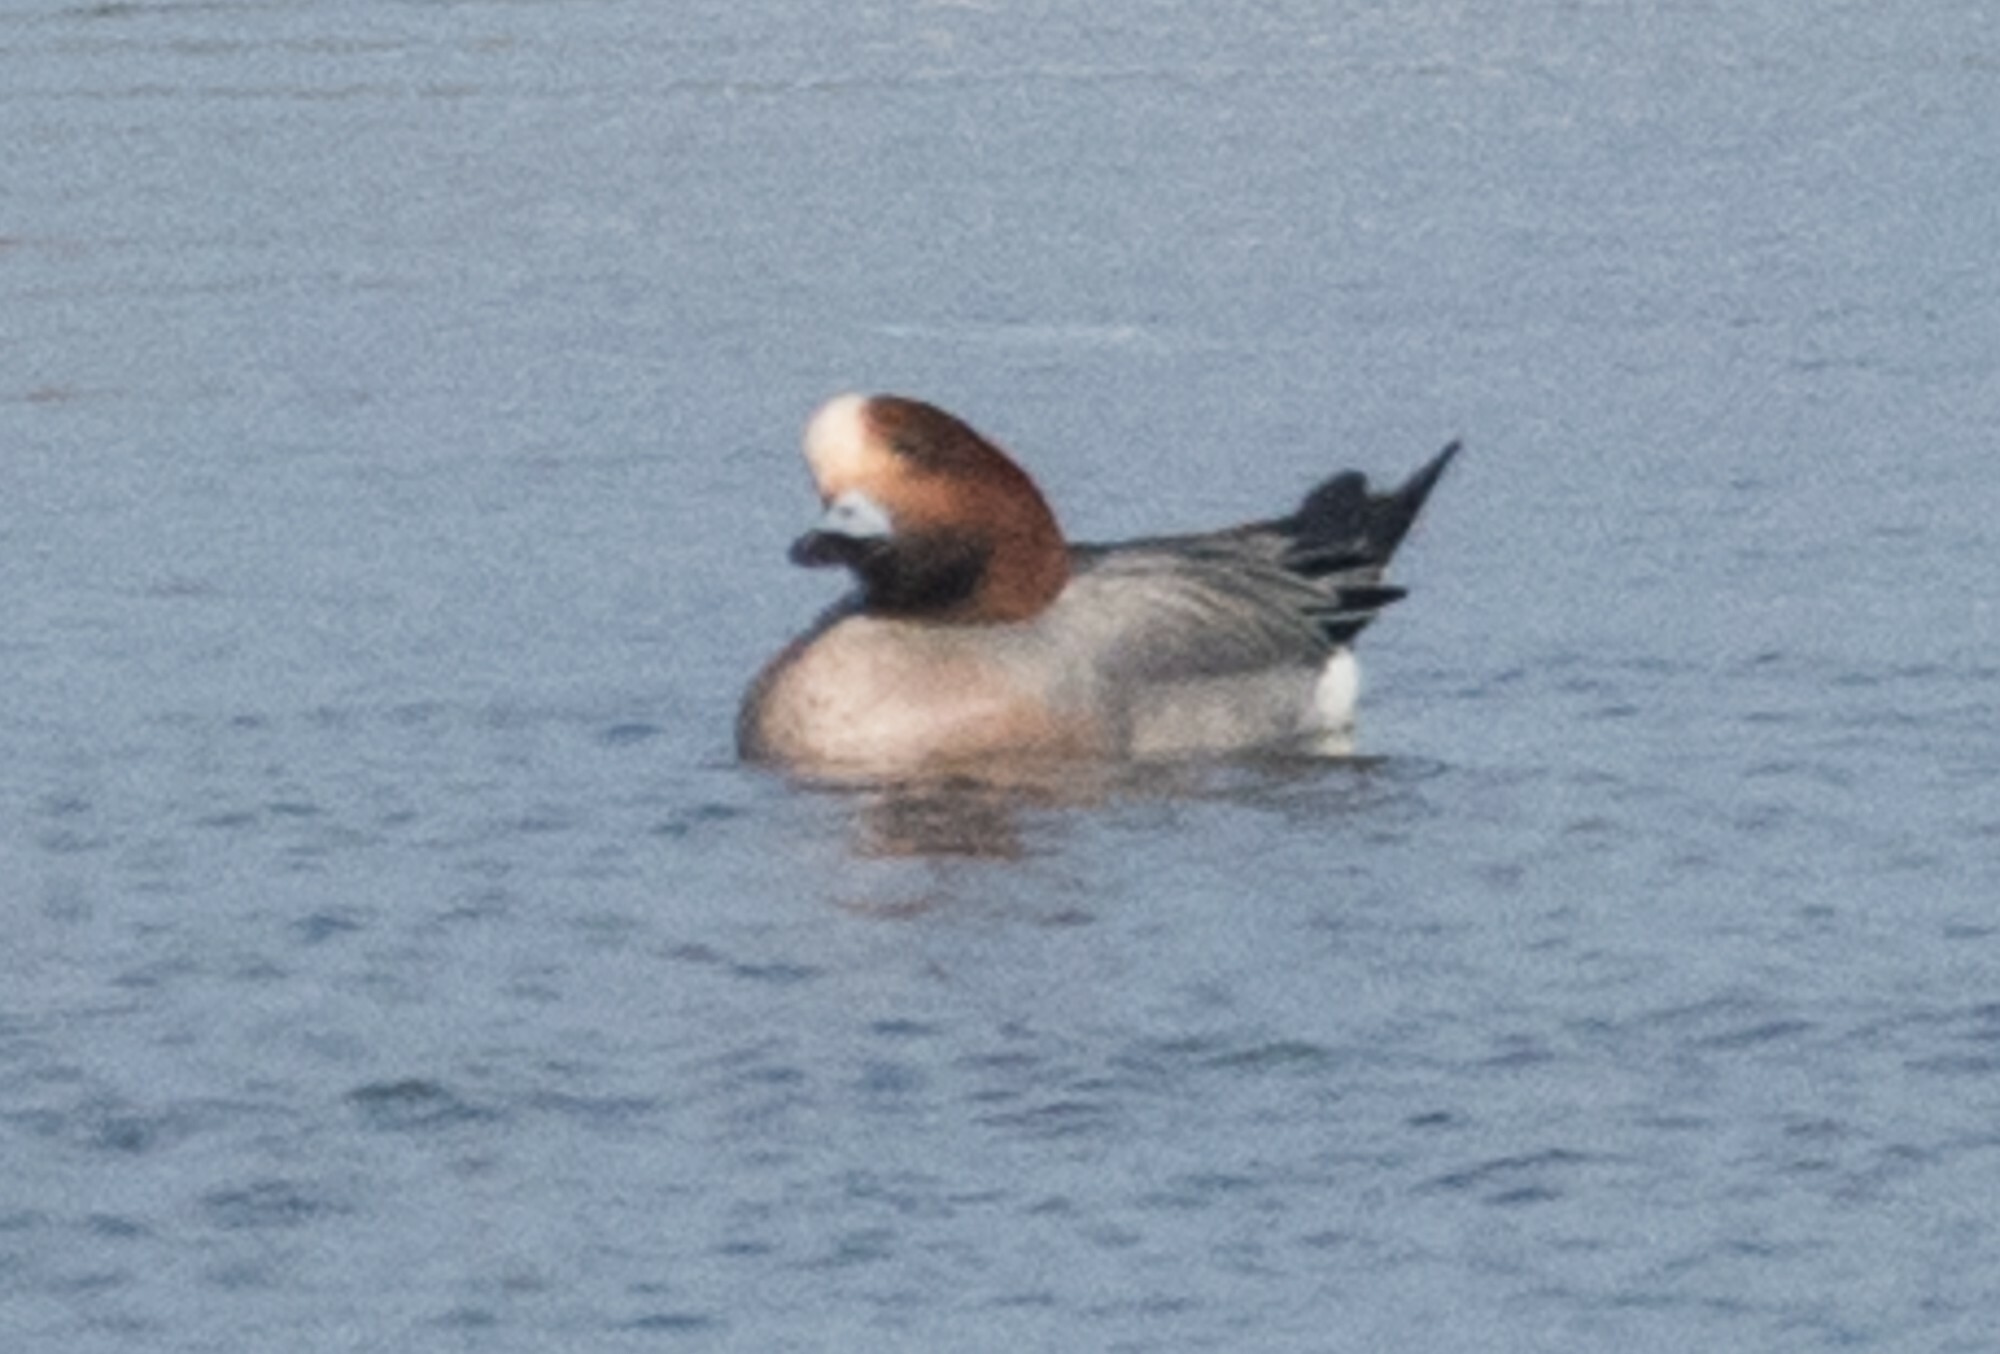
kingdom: Animalia
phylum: Chordata
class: Aves
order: Anseriformes
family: Anatidae
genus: Mareca
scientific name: Mareca penelope
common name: Eurasian wigeon
